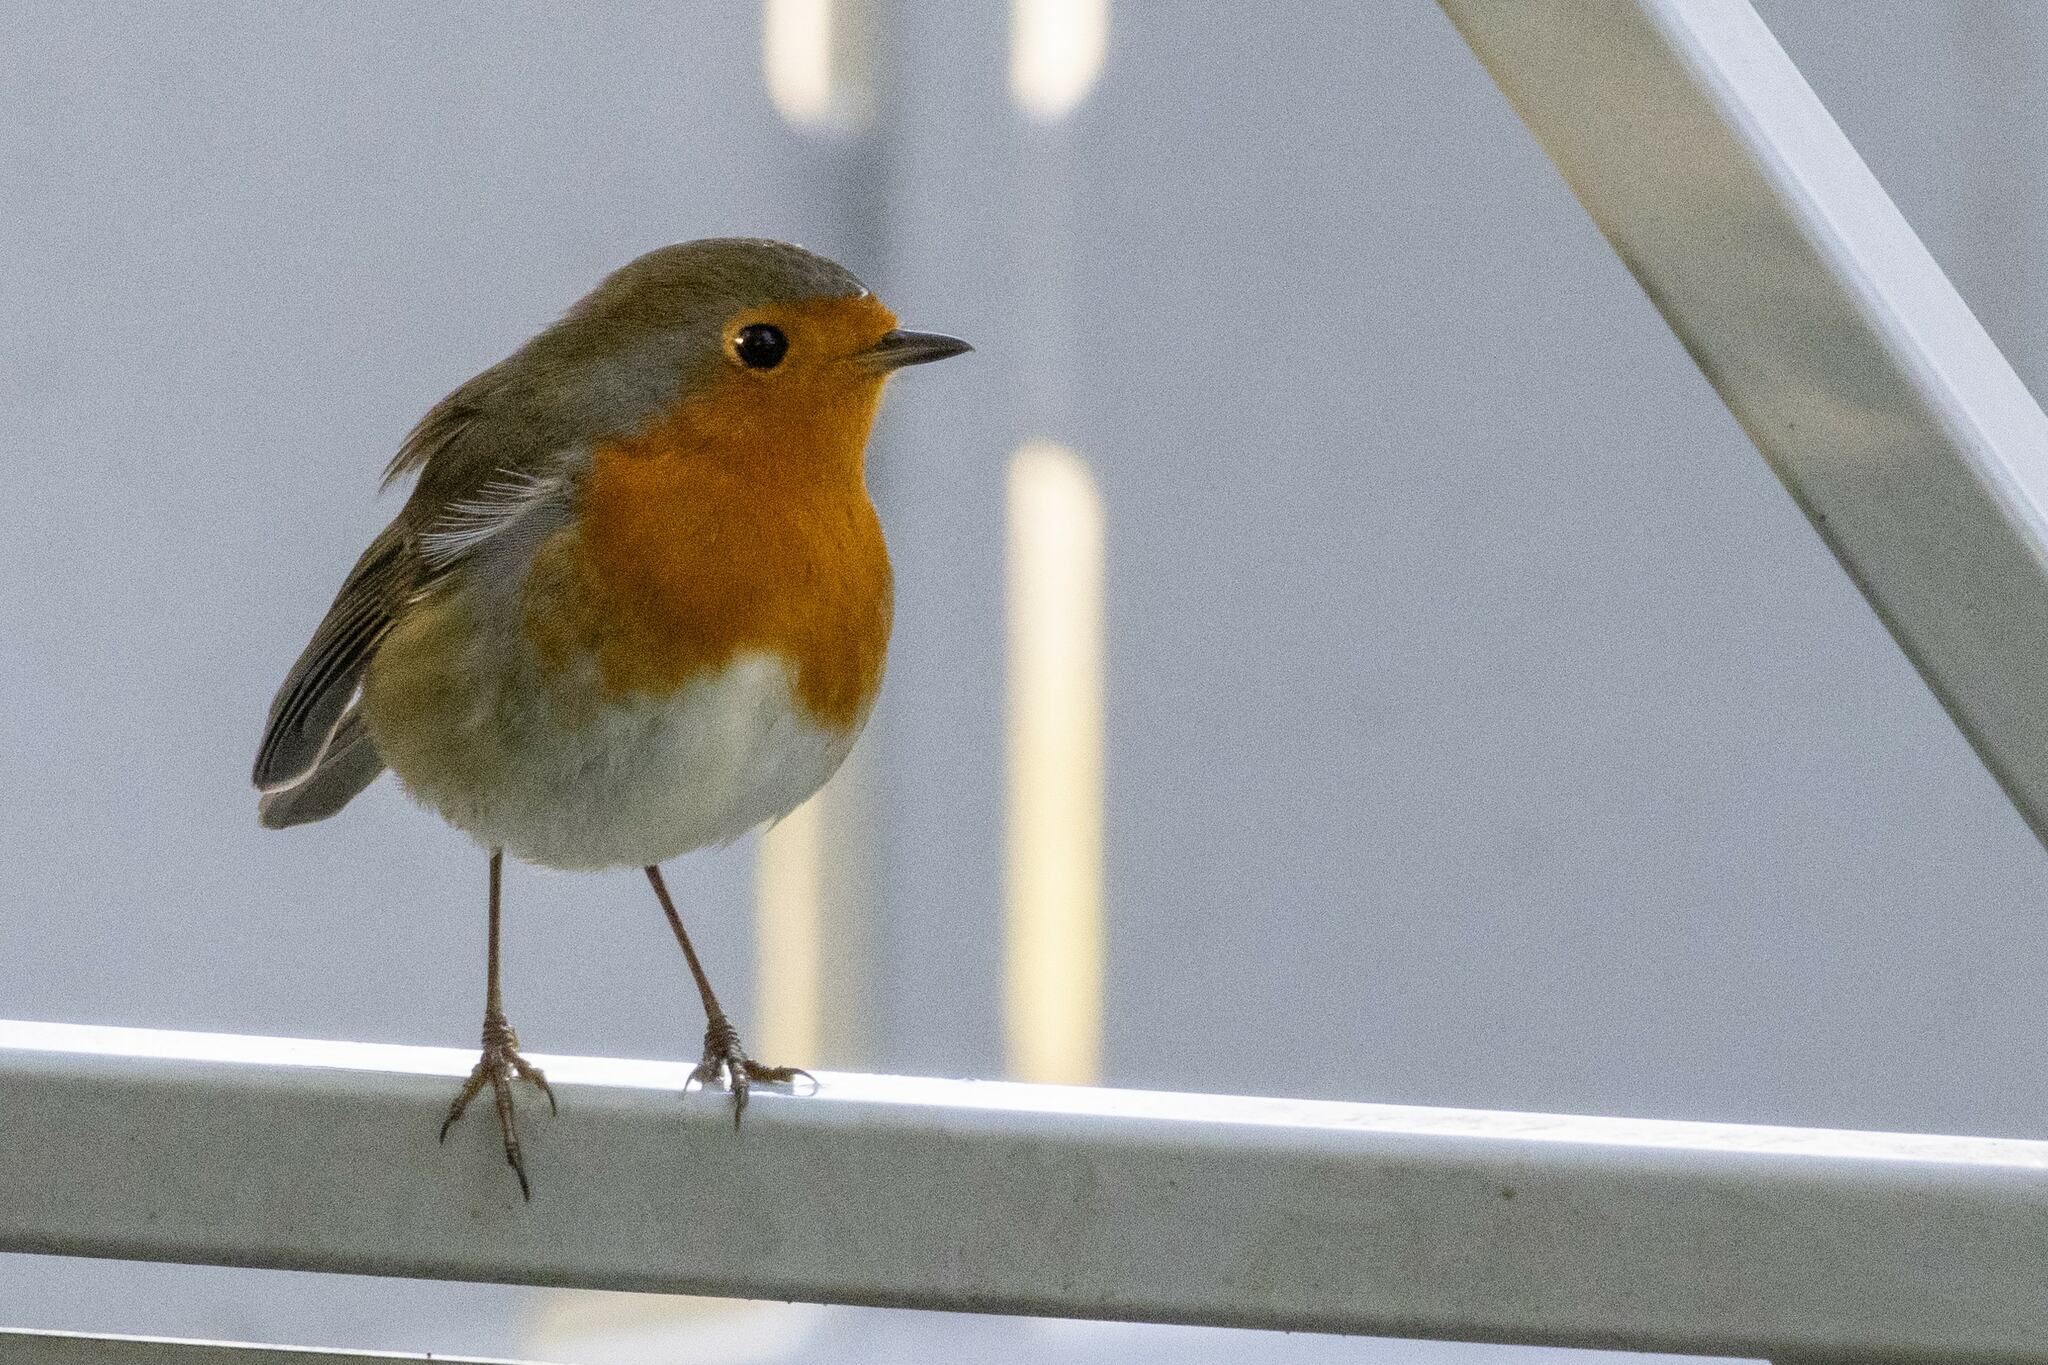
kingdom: Animalia
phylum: Chordata
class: Aves
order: Passeriformes
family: Muscicapidae
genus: Erithacus
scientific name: Erithacus rubecula
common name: European robin
